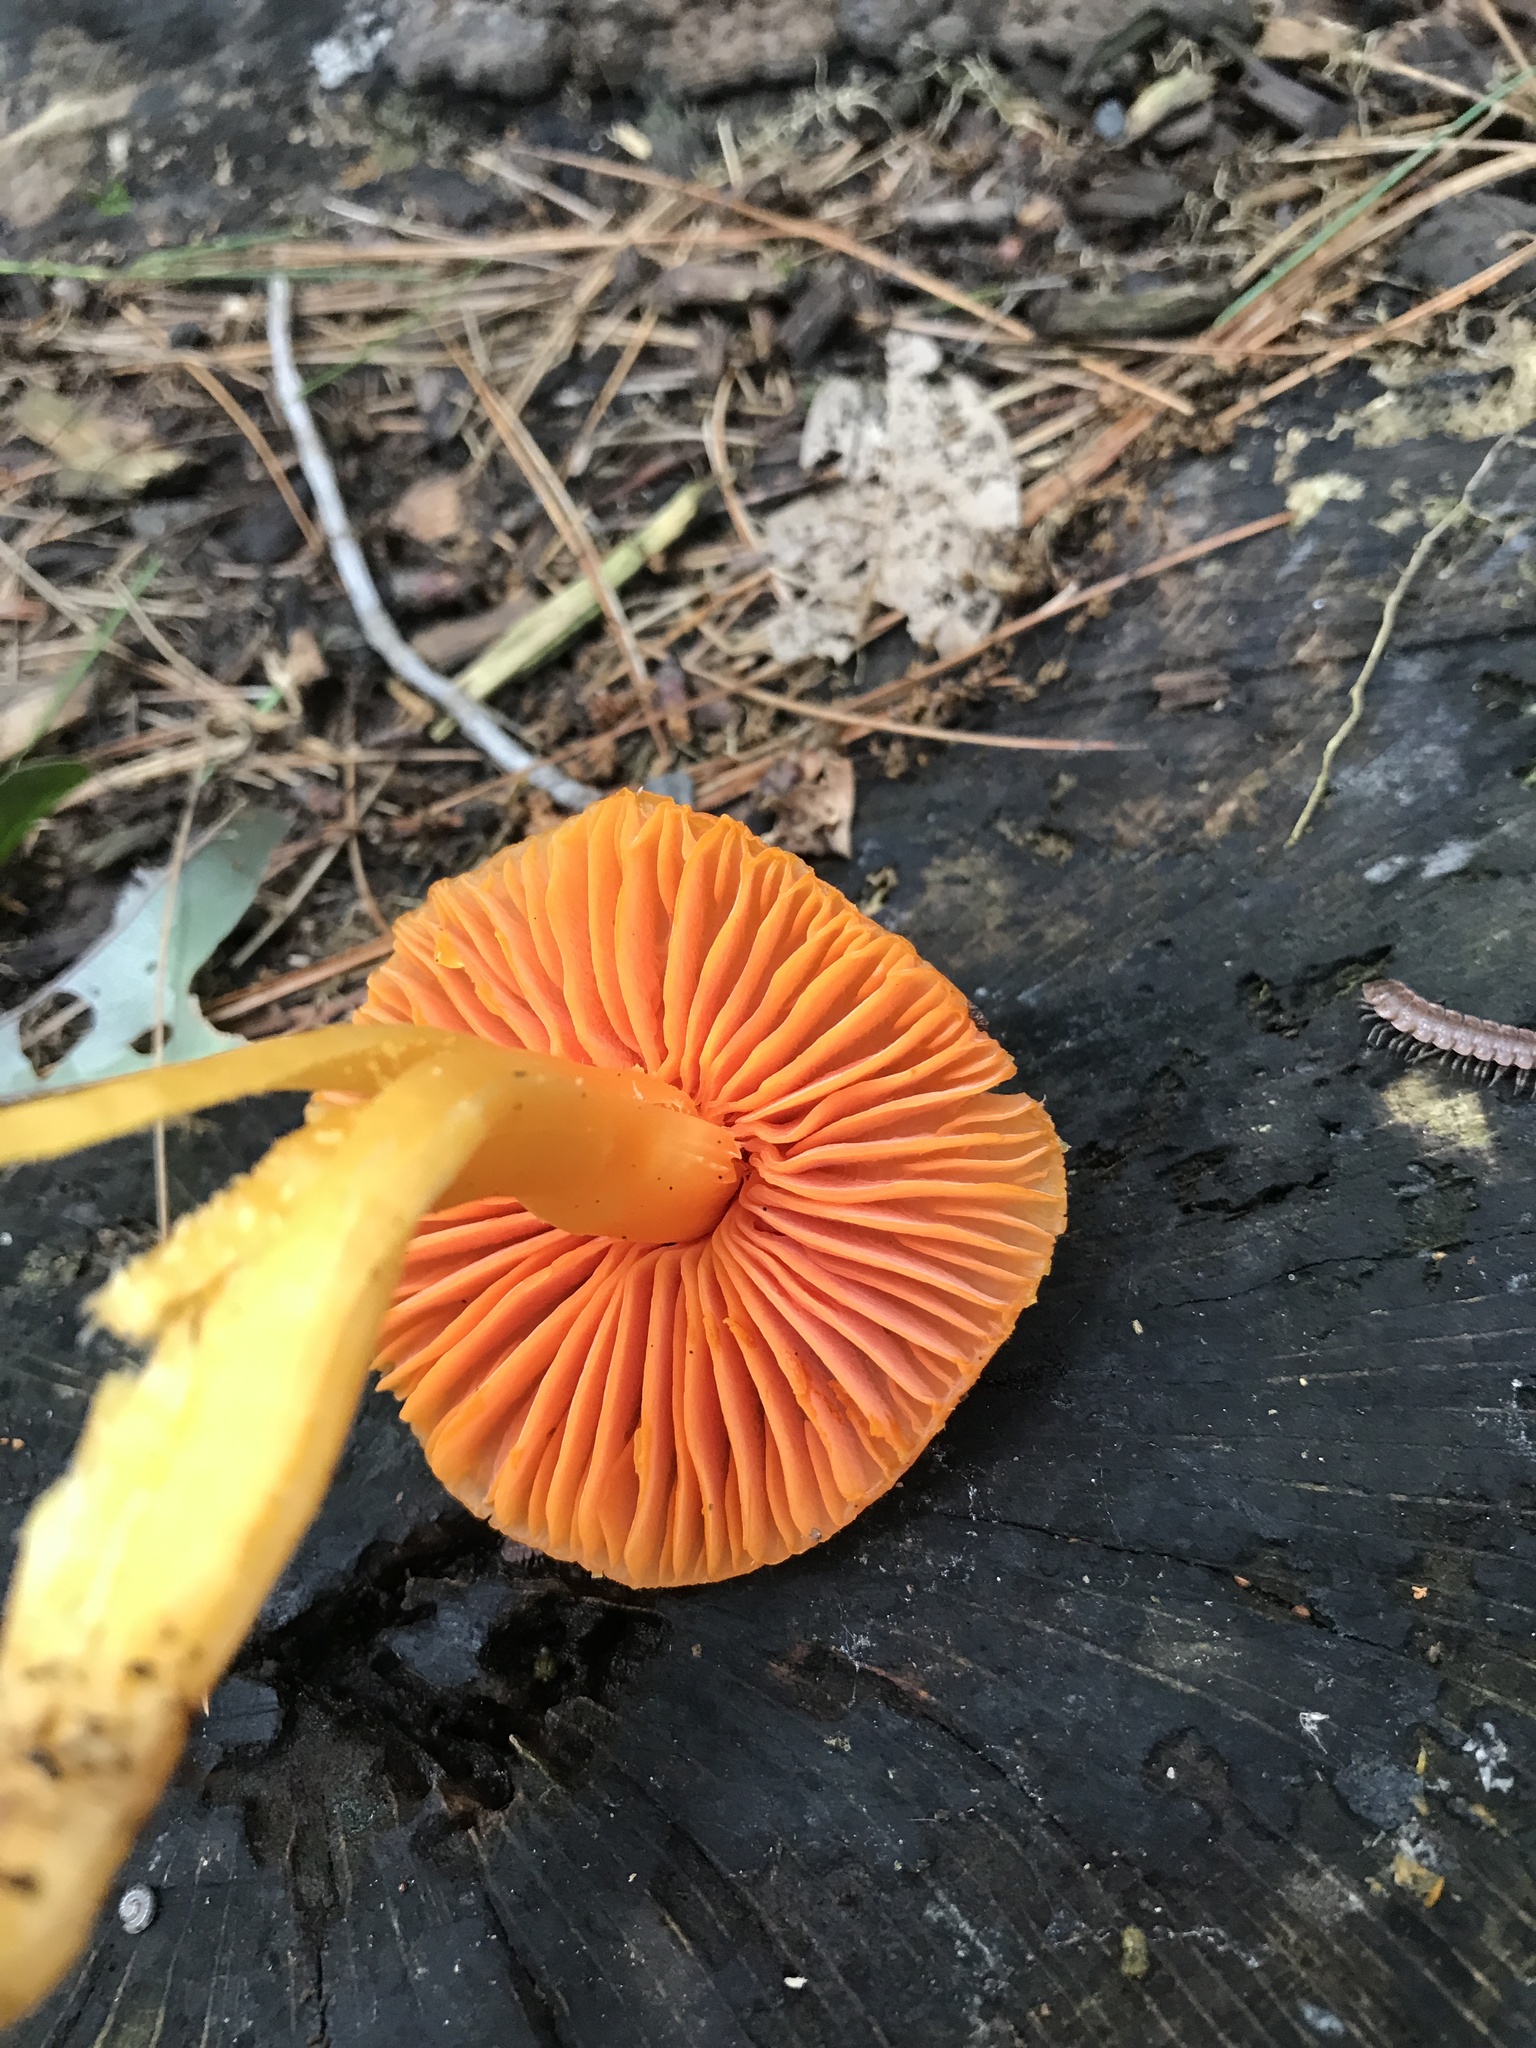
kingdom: Fungi
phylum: Basidiomycota
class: Agaricomycetes
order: Agaricales
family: Hygrophoraceae
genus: Humidicutis
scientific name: Humidicutis marginata
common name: Orange gilled waxcap
